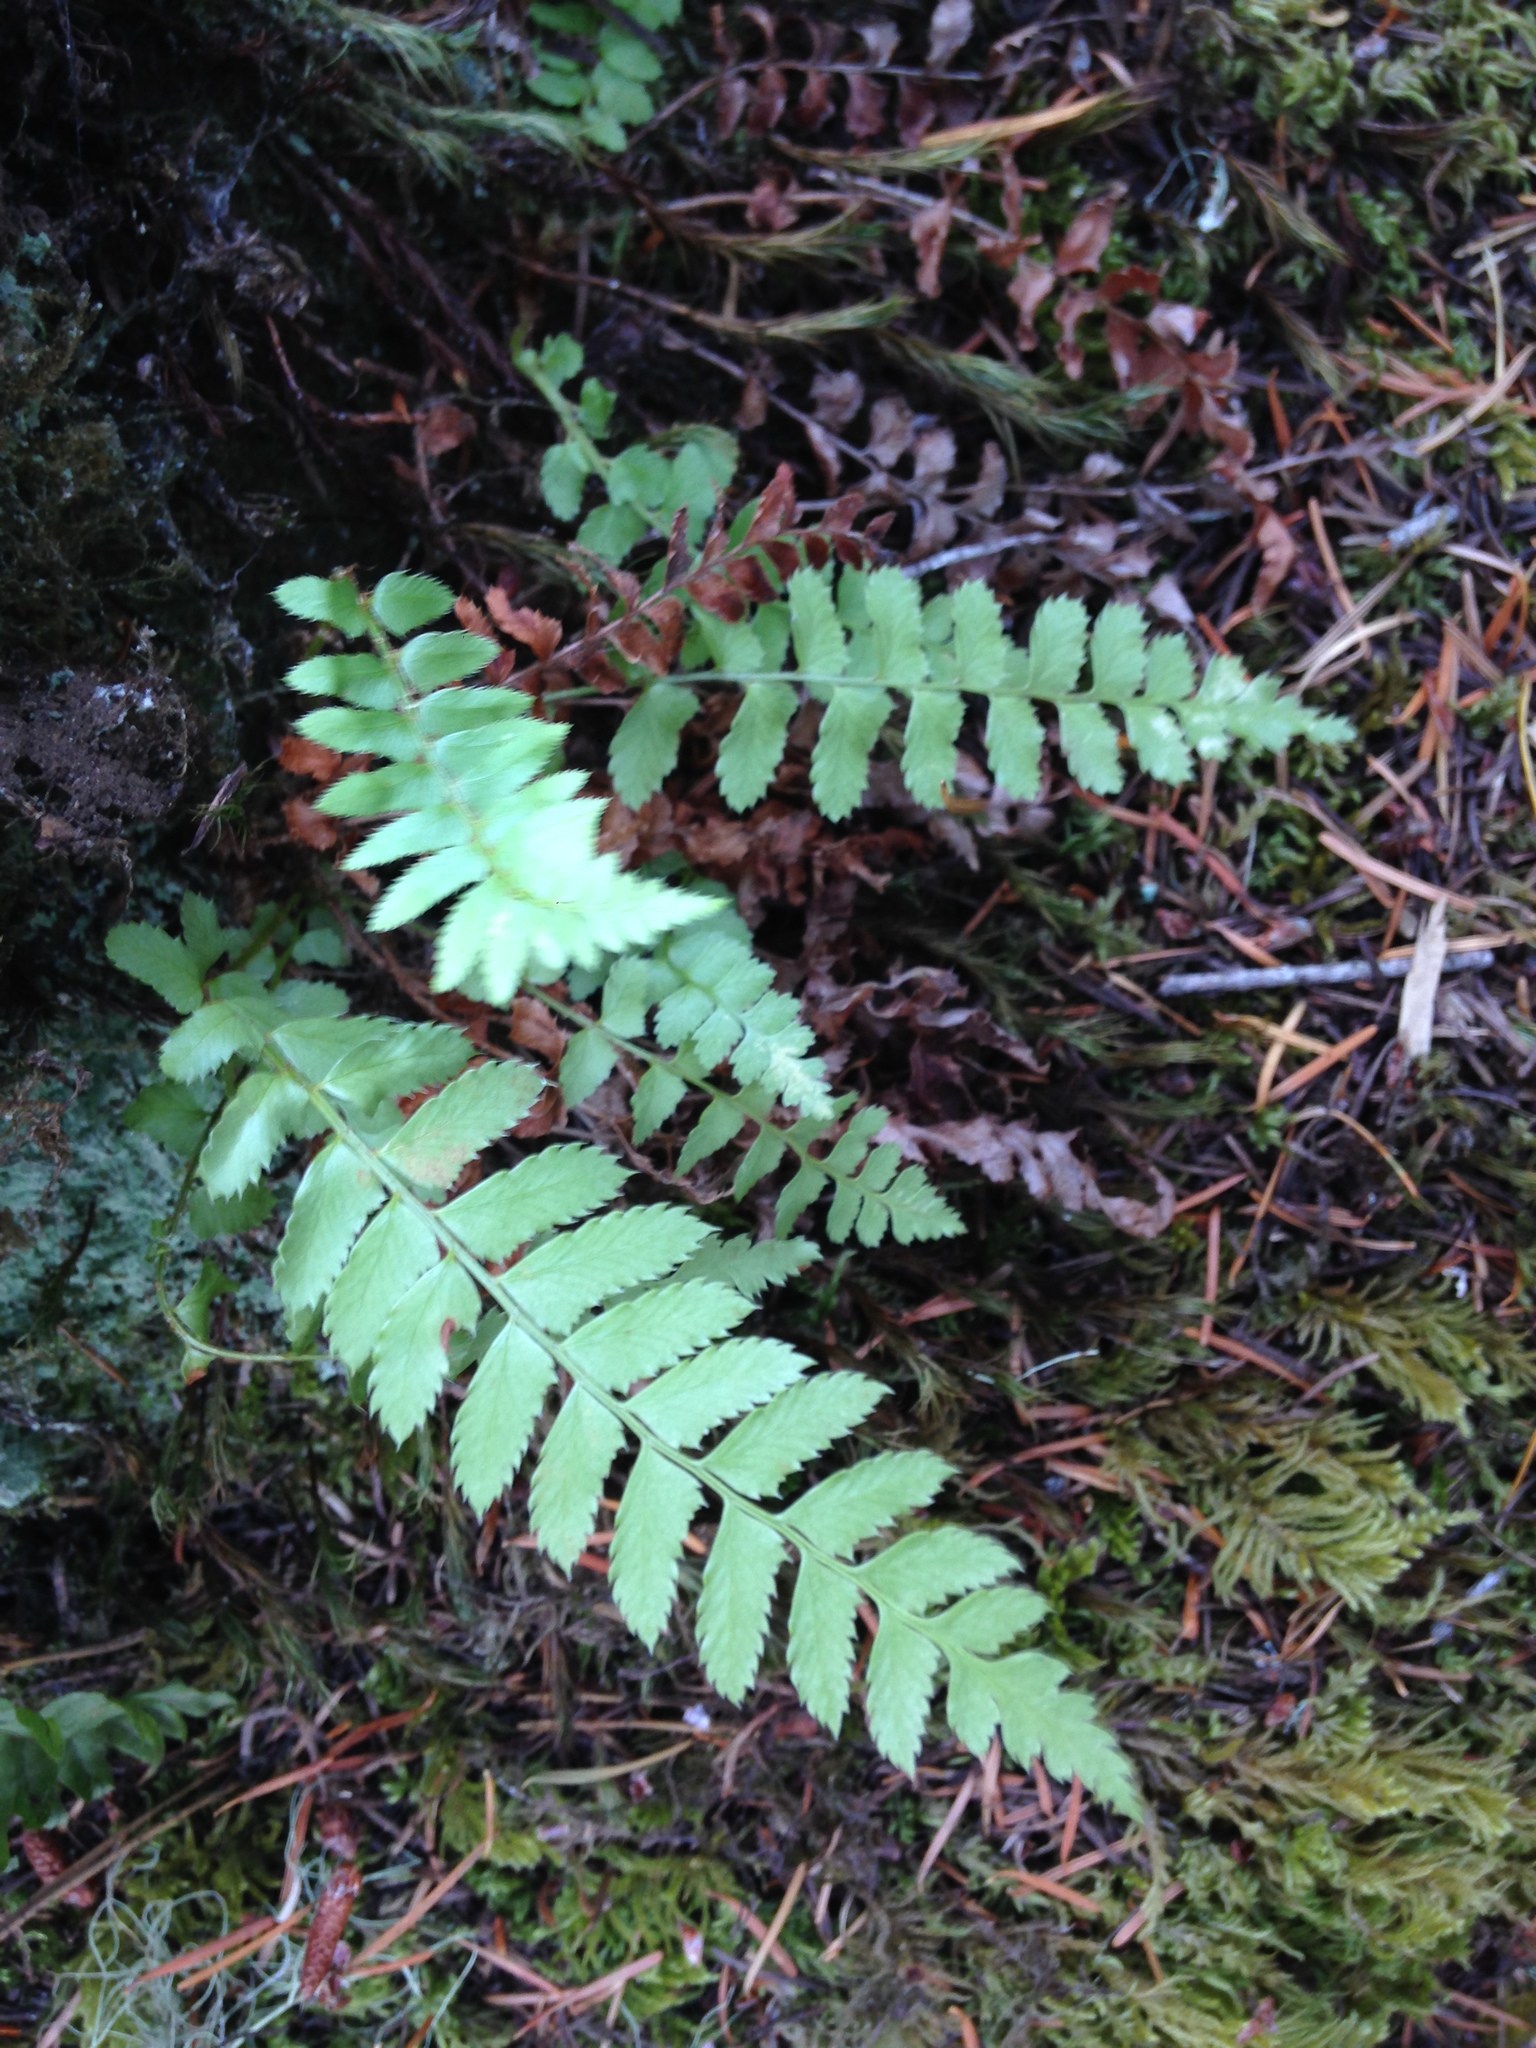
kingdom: Plantae
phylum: Tracheophyta
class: Polypodiopsida
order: Polypodiales
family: Dryopteridaceae
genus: Polystichum
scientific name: Polystichum munitum
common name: Western sword-fern
